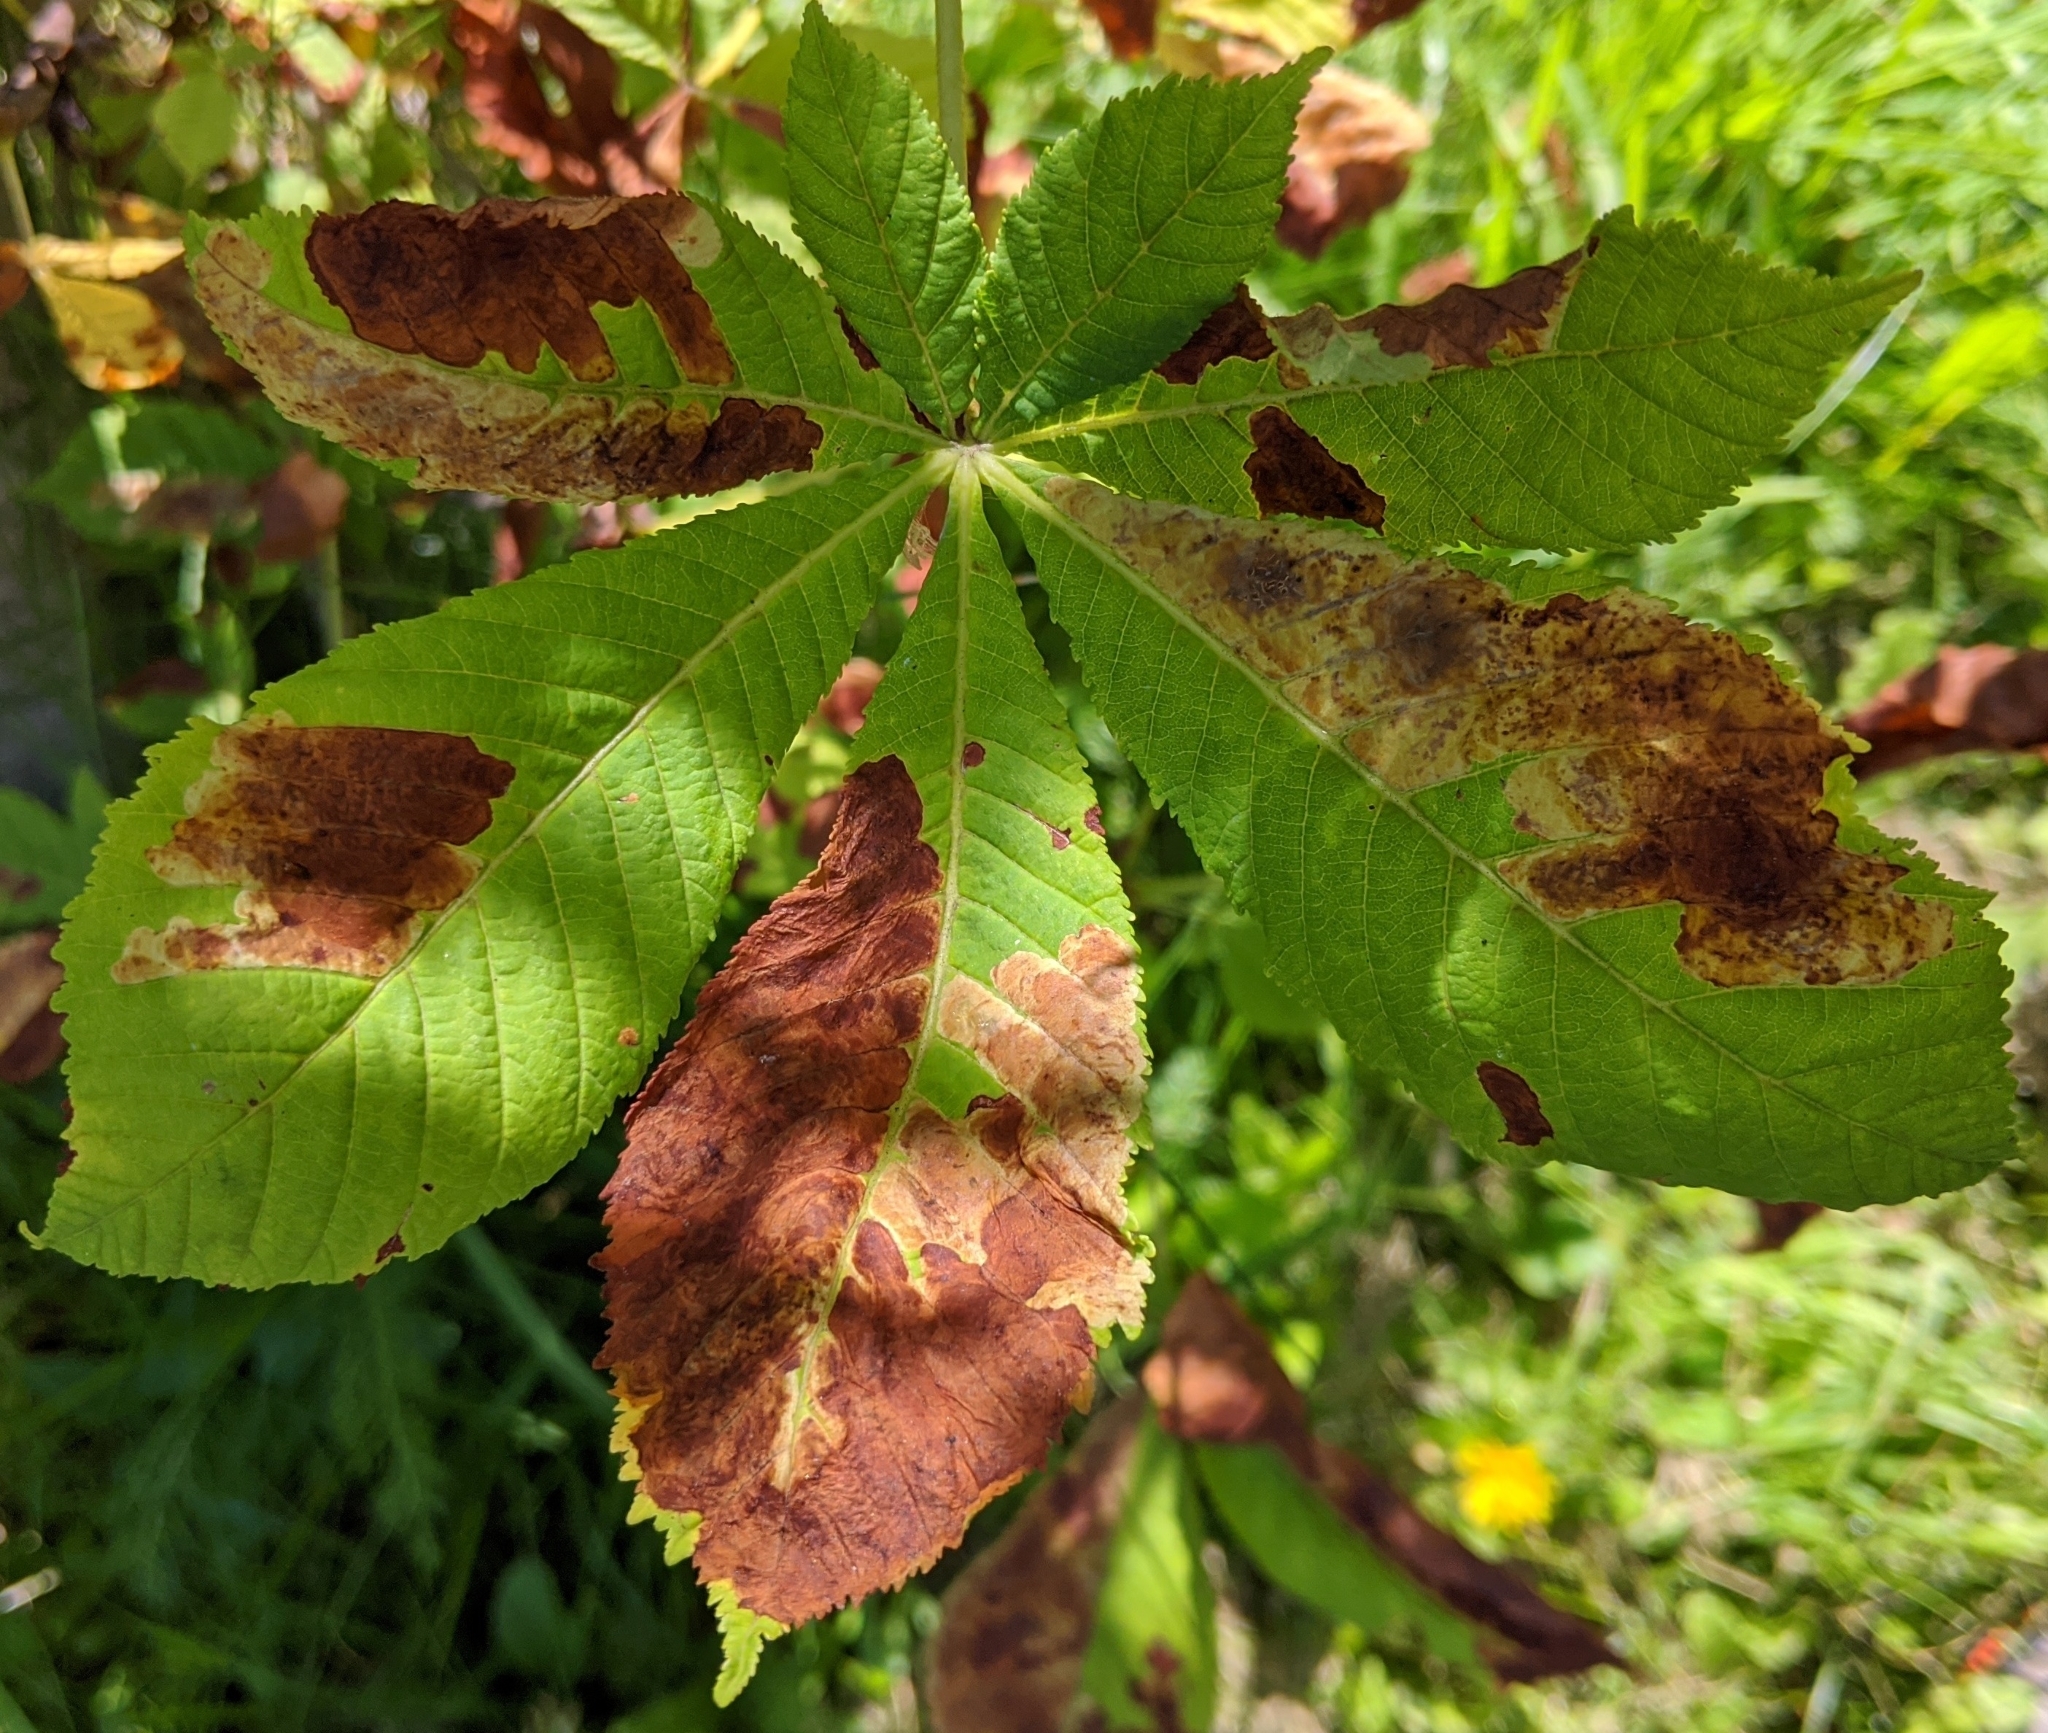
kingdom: Animalia
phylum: Arthropoda
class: Insecta
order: Lepidoptera
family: Gracillariidae
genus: Cameraria
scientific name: Cameraria ohridella
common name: Horse-chestnut leaf-miner
